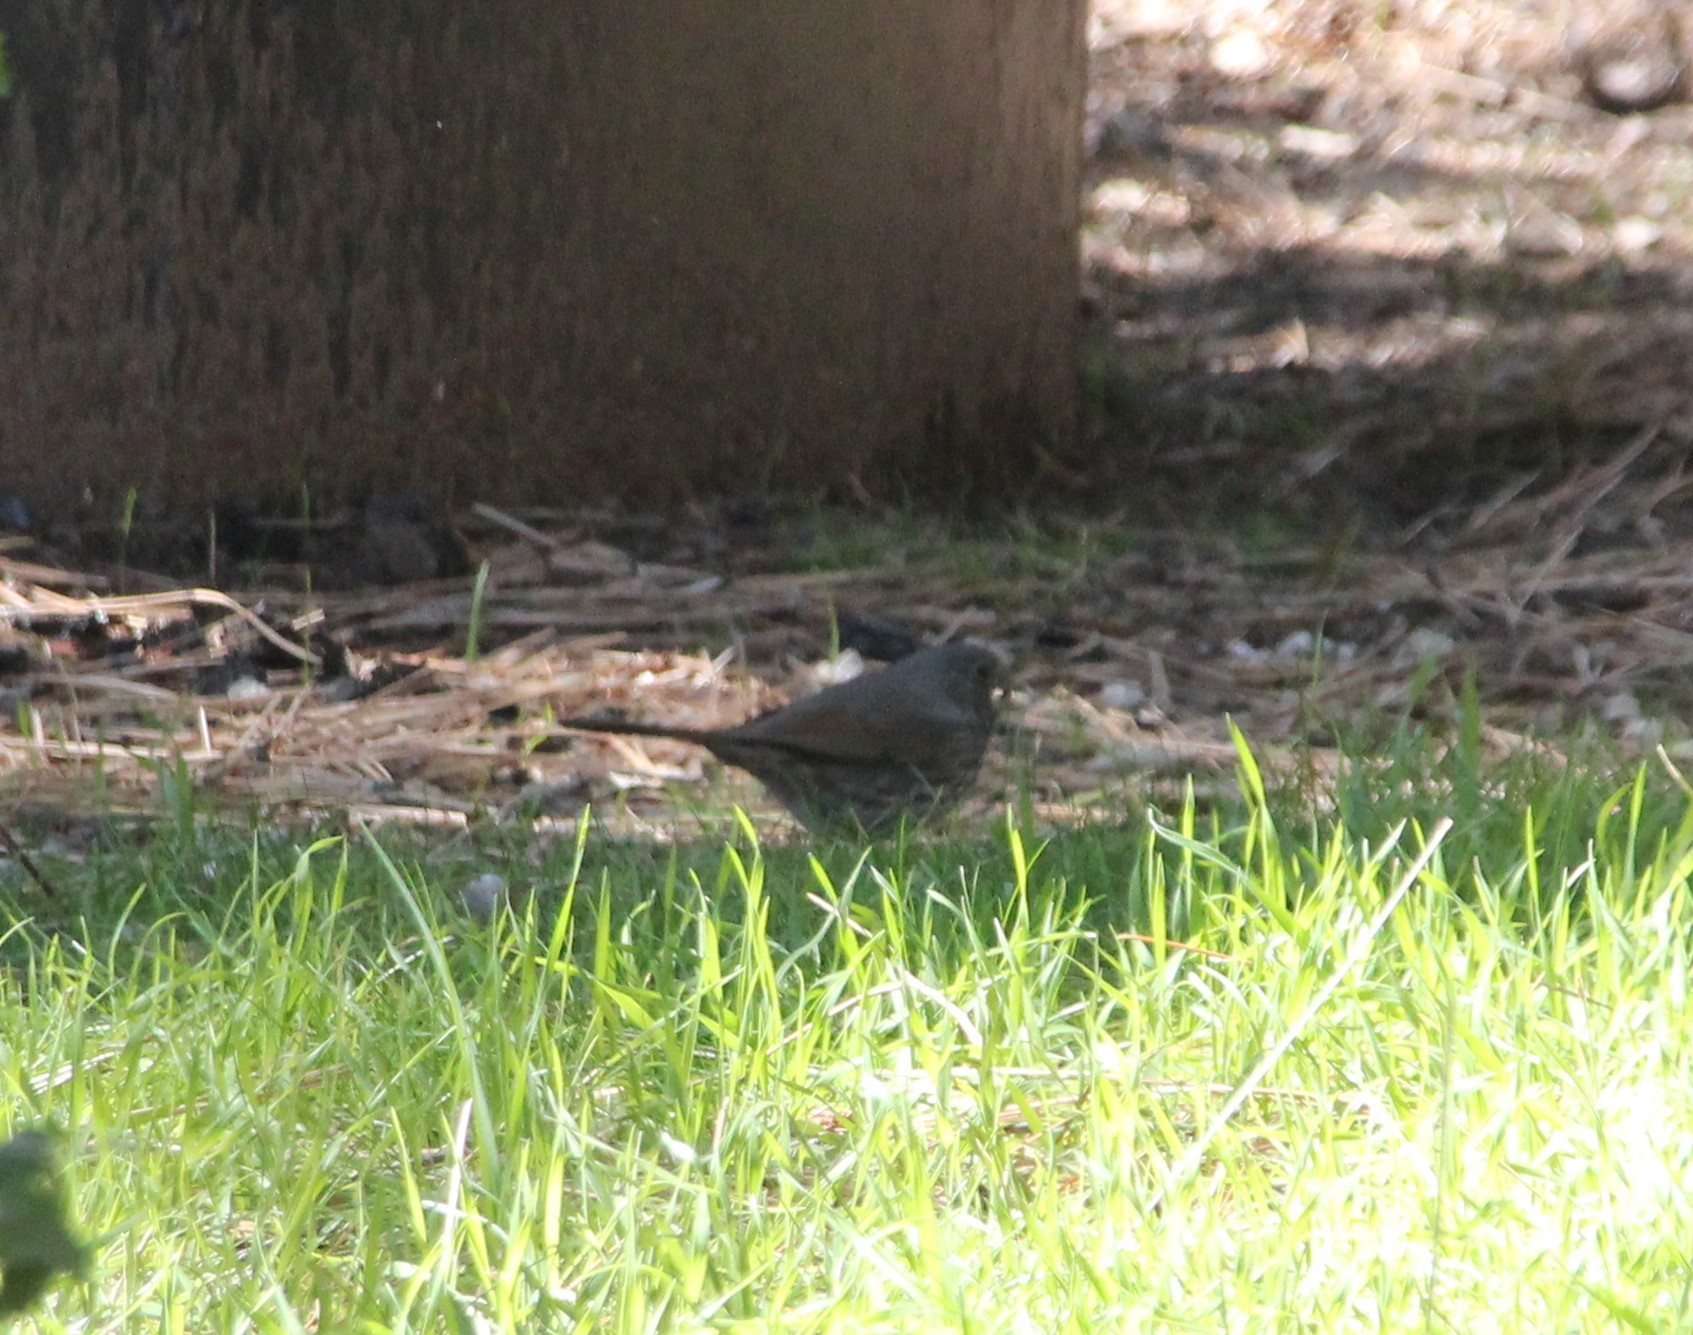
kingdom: Animalia
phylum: Chordata
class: Aves
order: Passeriformes
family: Passerellidae
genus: Passerella
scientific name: Passerella iliaca
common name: Fox sparrow
